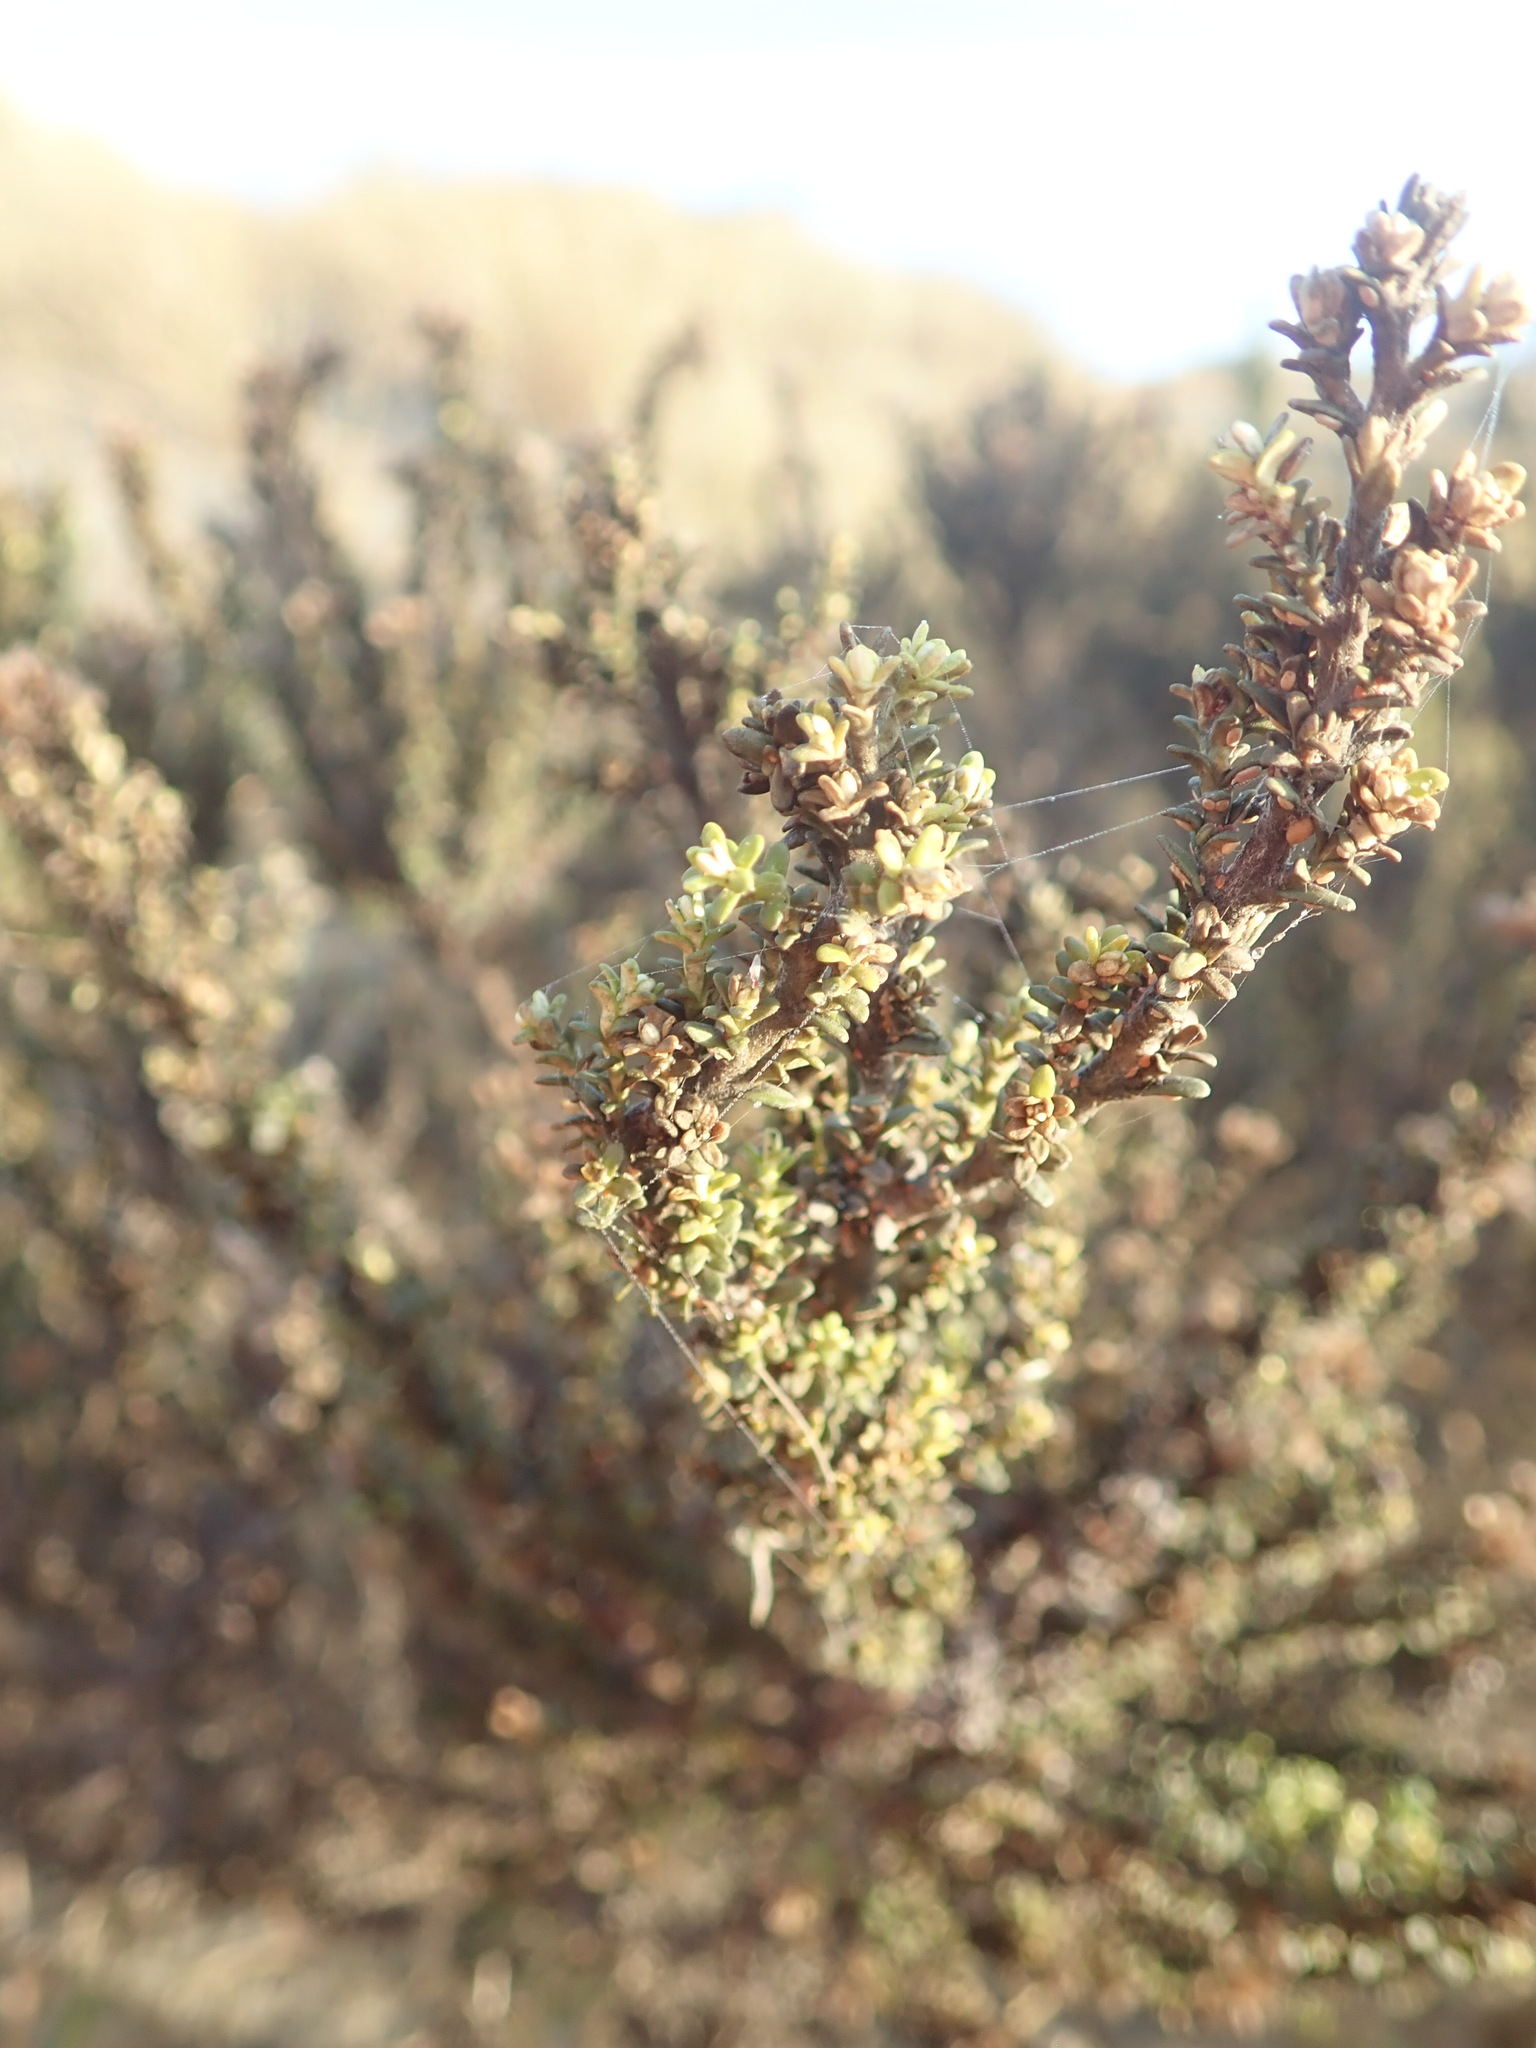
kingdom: Plantae
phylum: Tracheophyta
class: Magnoliopsida
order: Asterales
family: Asteraceae
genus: Ozothamnus
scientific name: Ozothamnus leptophyllus
